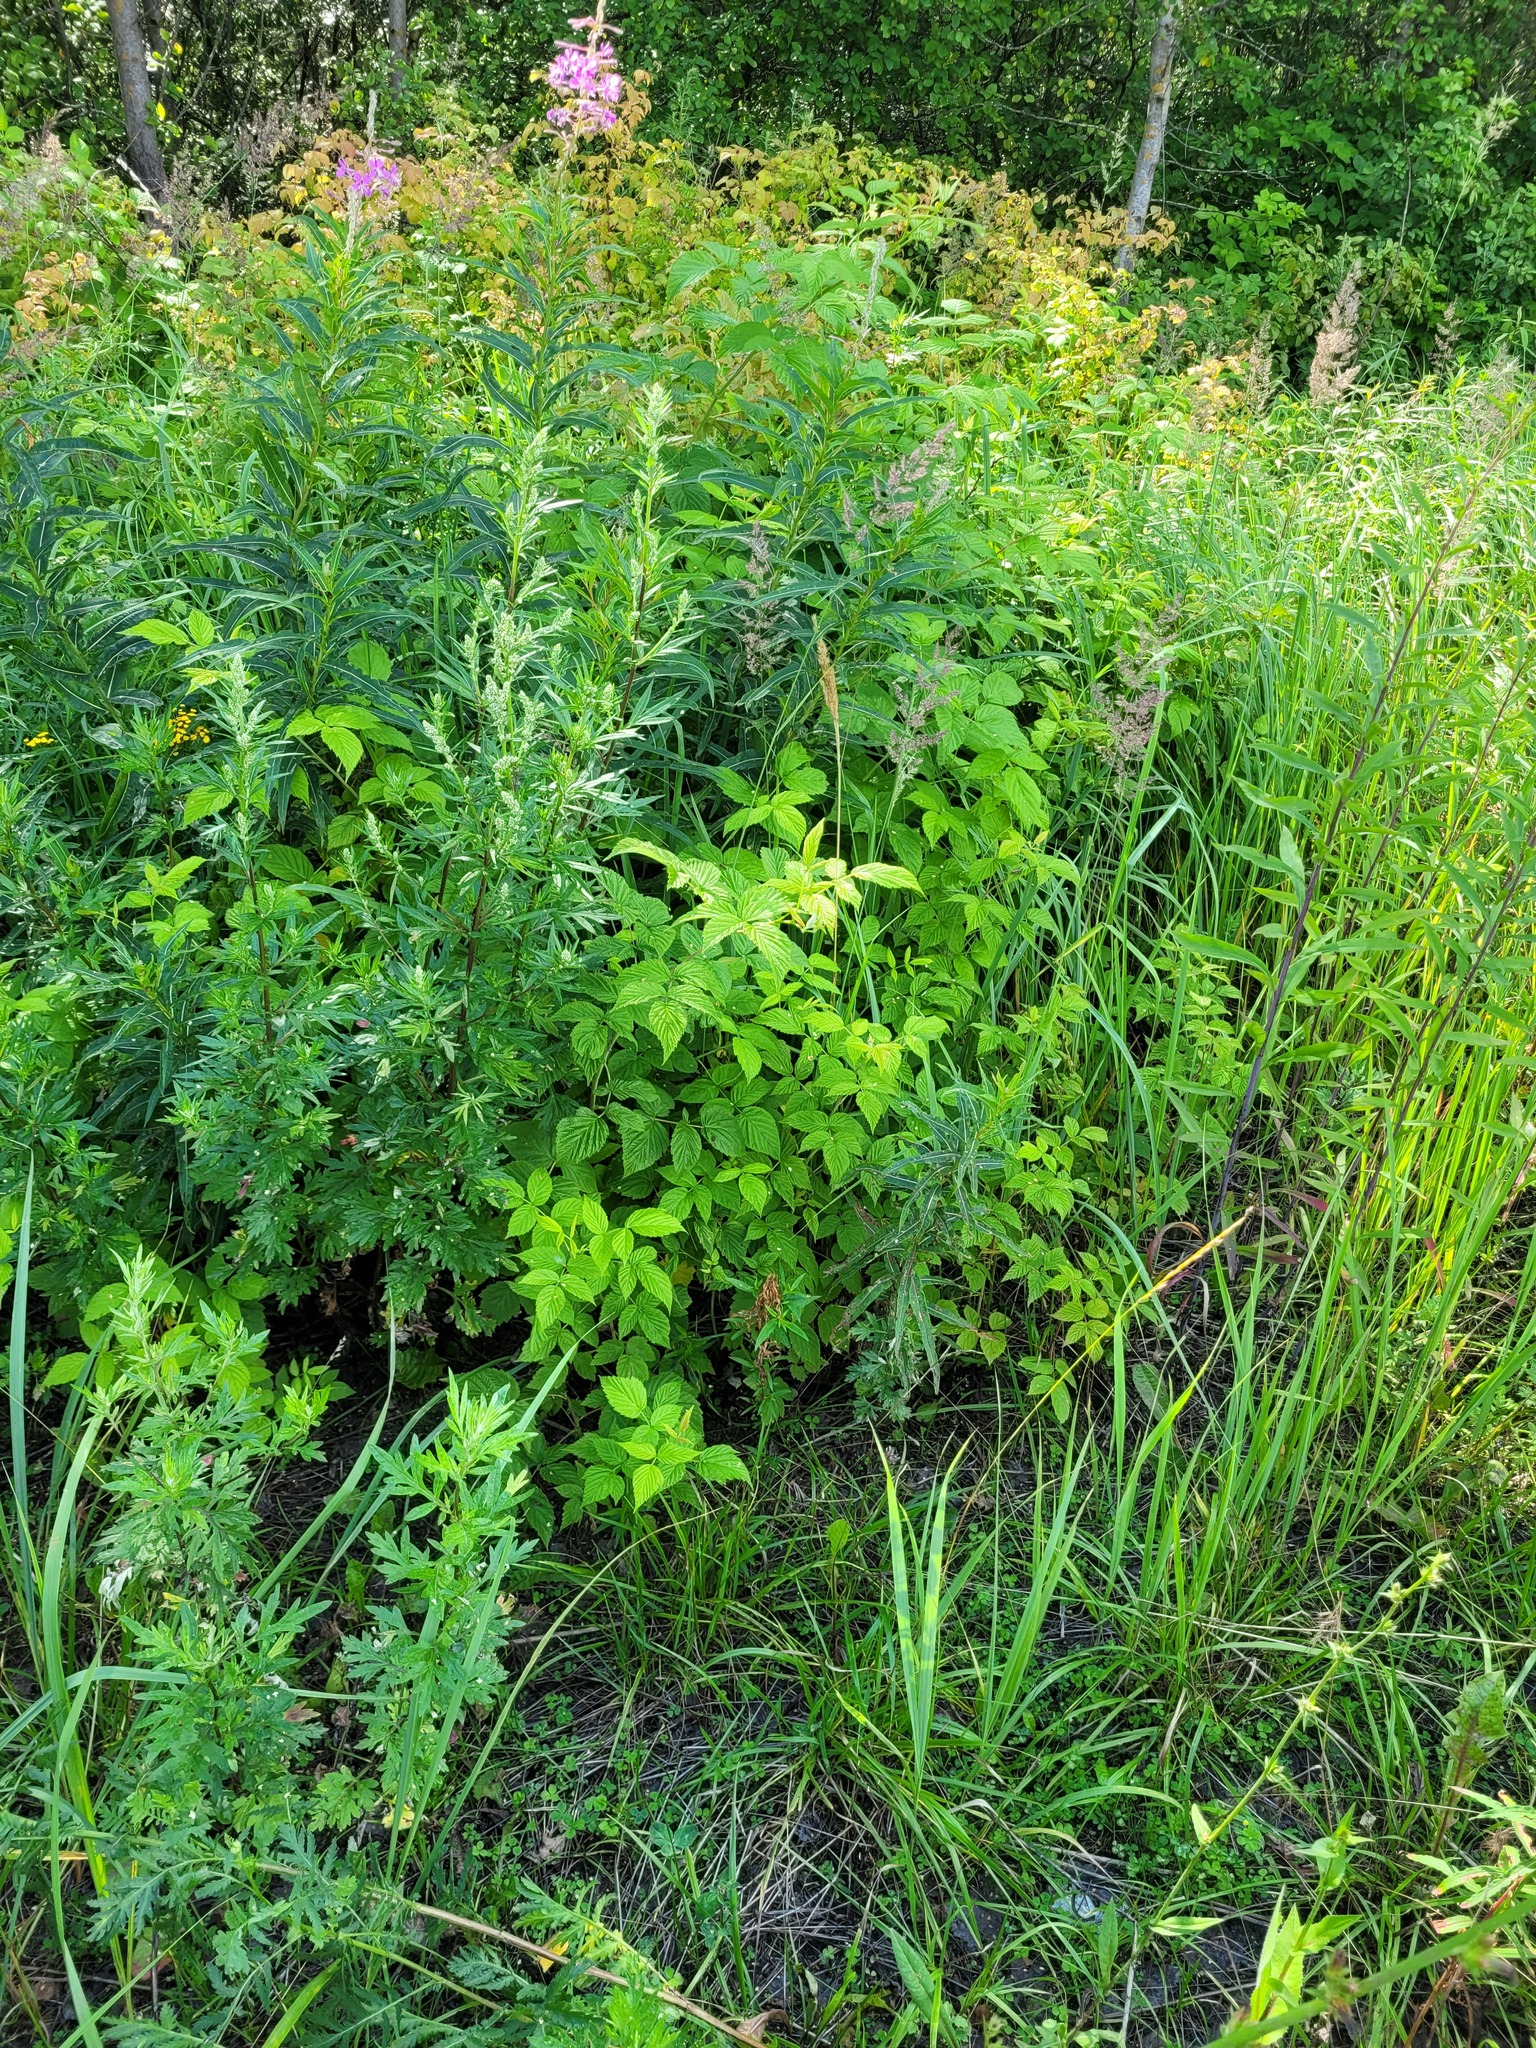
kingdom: Plantae
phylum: Tracheophyta
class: Magnoliopsida
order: Rosales
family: Rosaceae
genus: Rubus
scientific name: Rubus idaeus
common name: Raspberry
